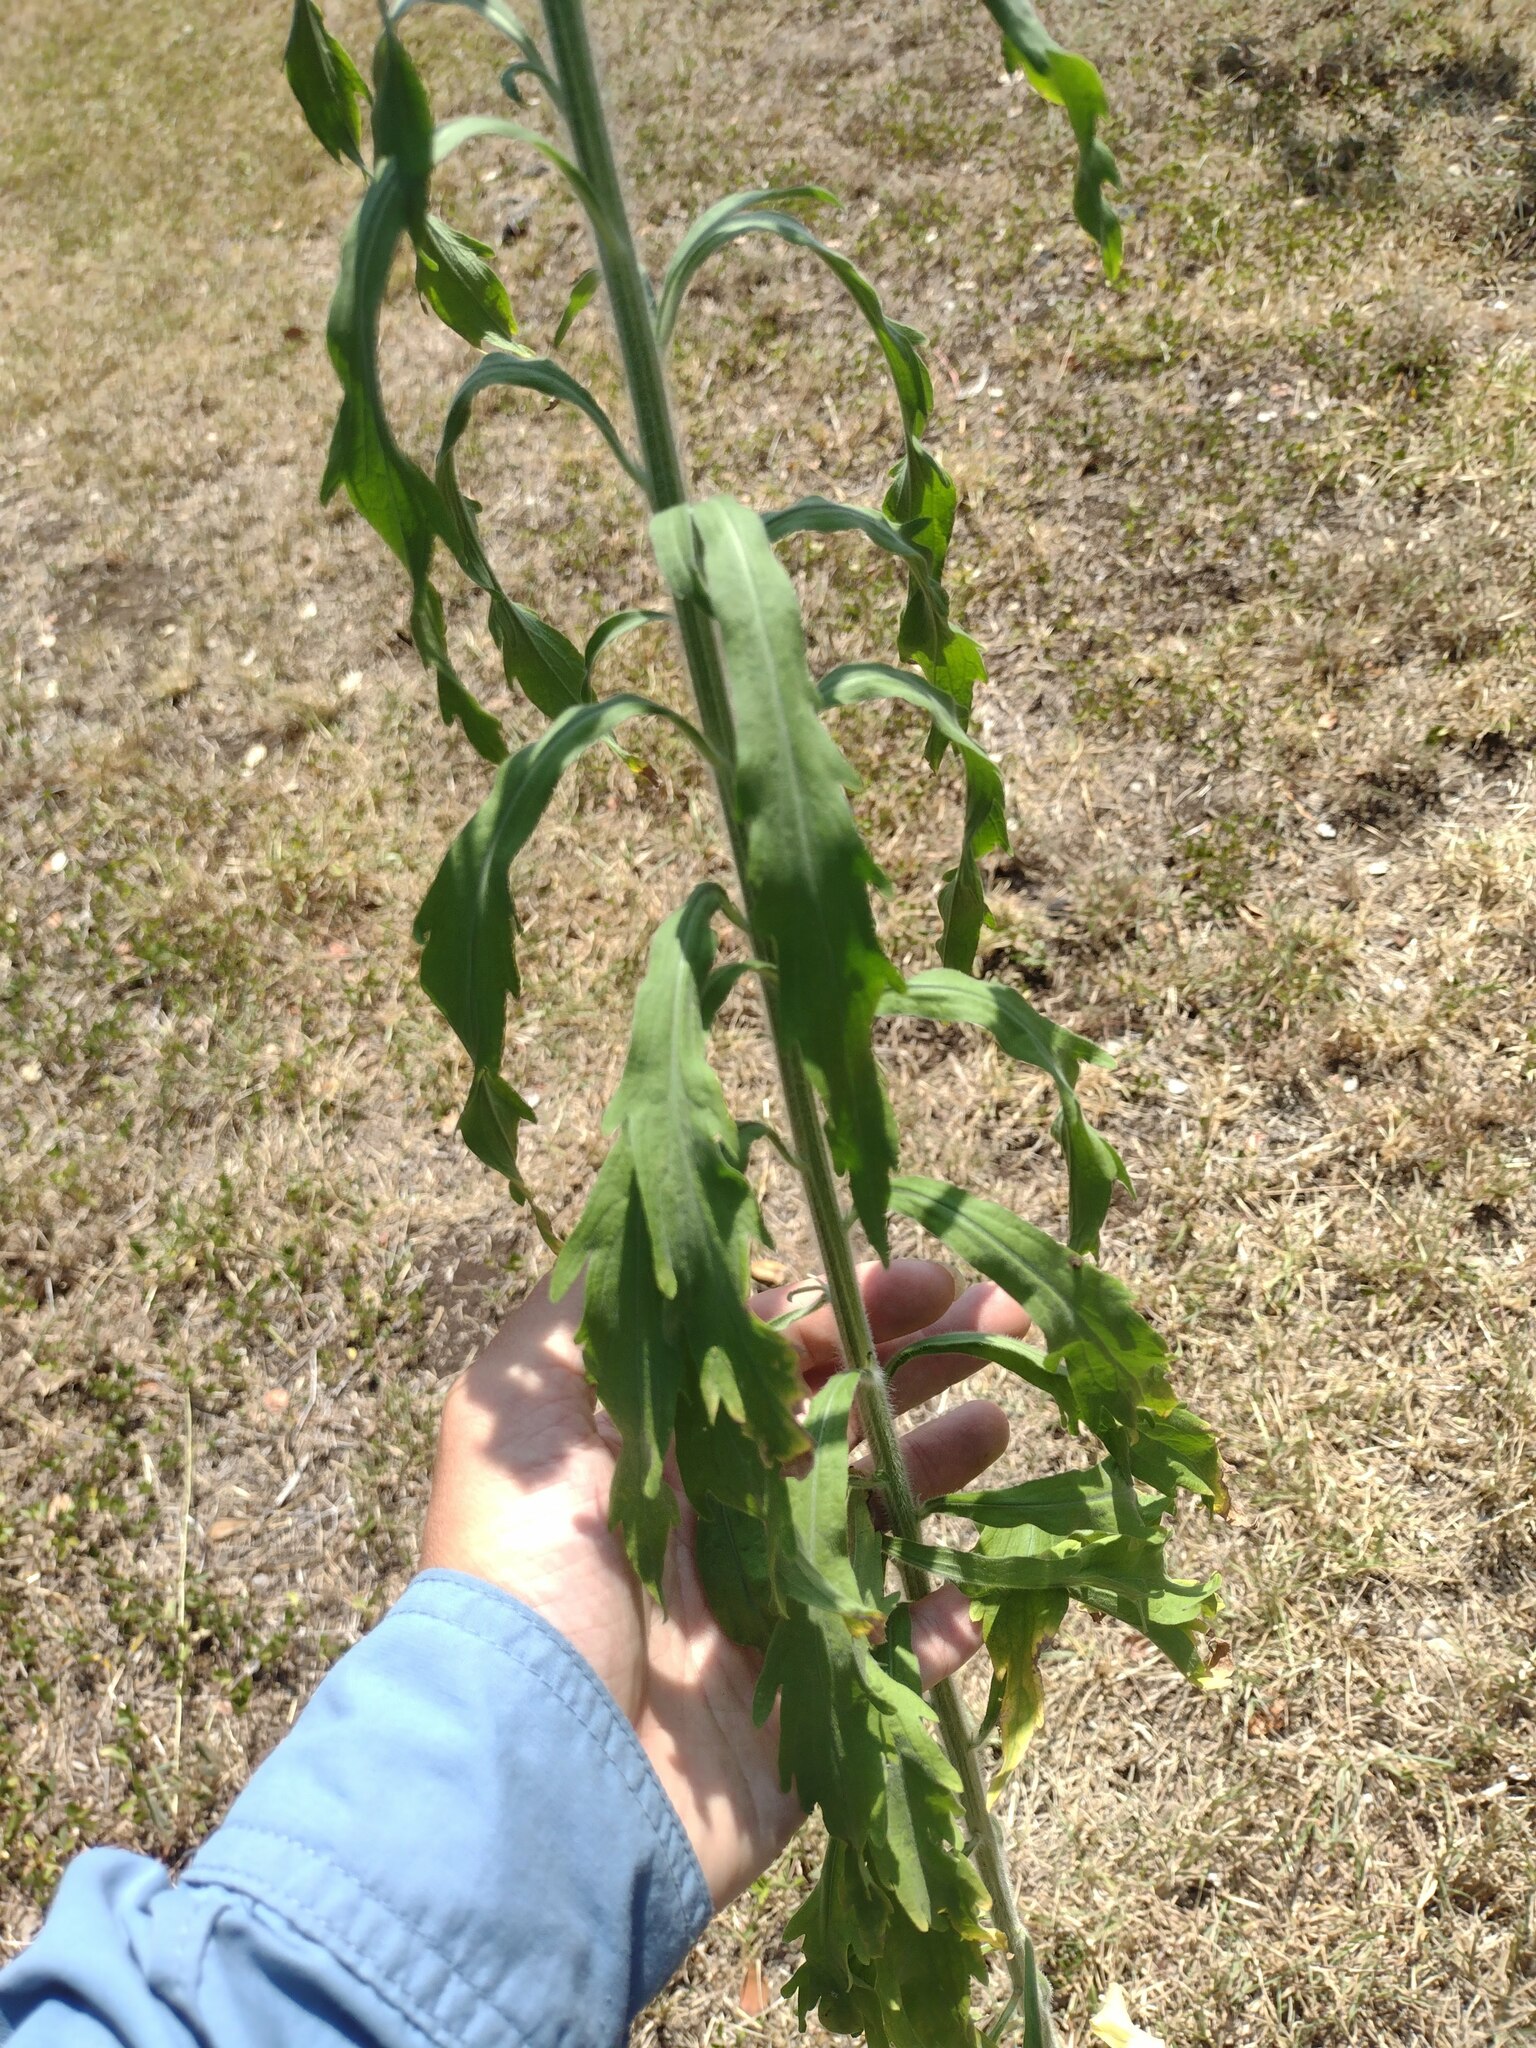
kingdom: Plantae
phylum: Tracheophyta
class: Magnoliopsida
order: Asterales
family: Asteraceae
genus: Erigeron
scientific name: Erigeron sumatrensis
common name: Daisy
